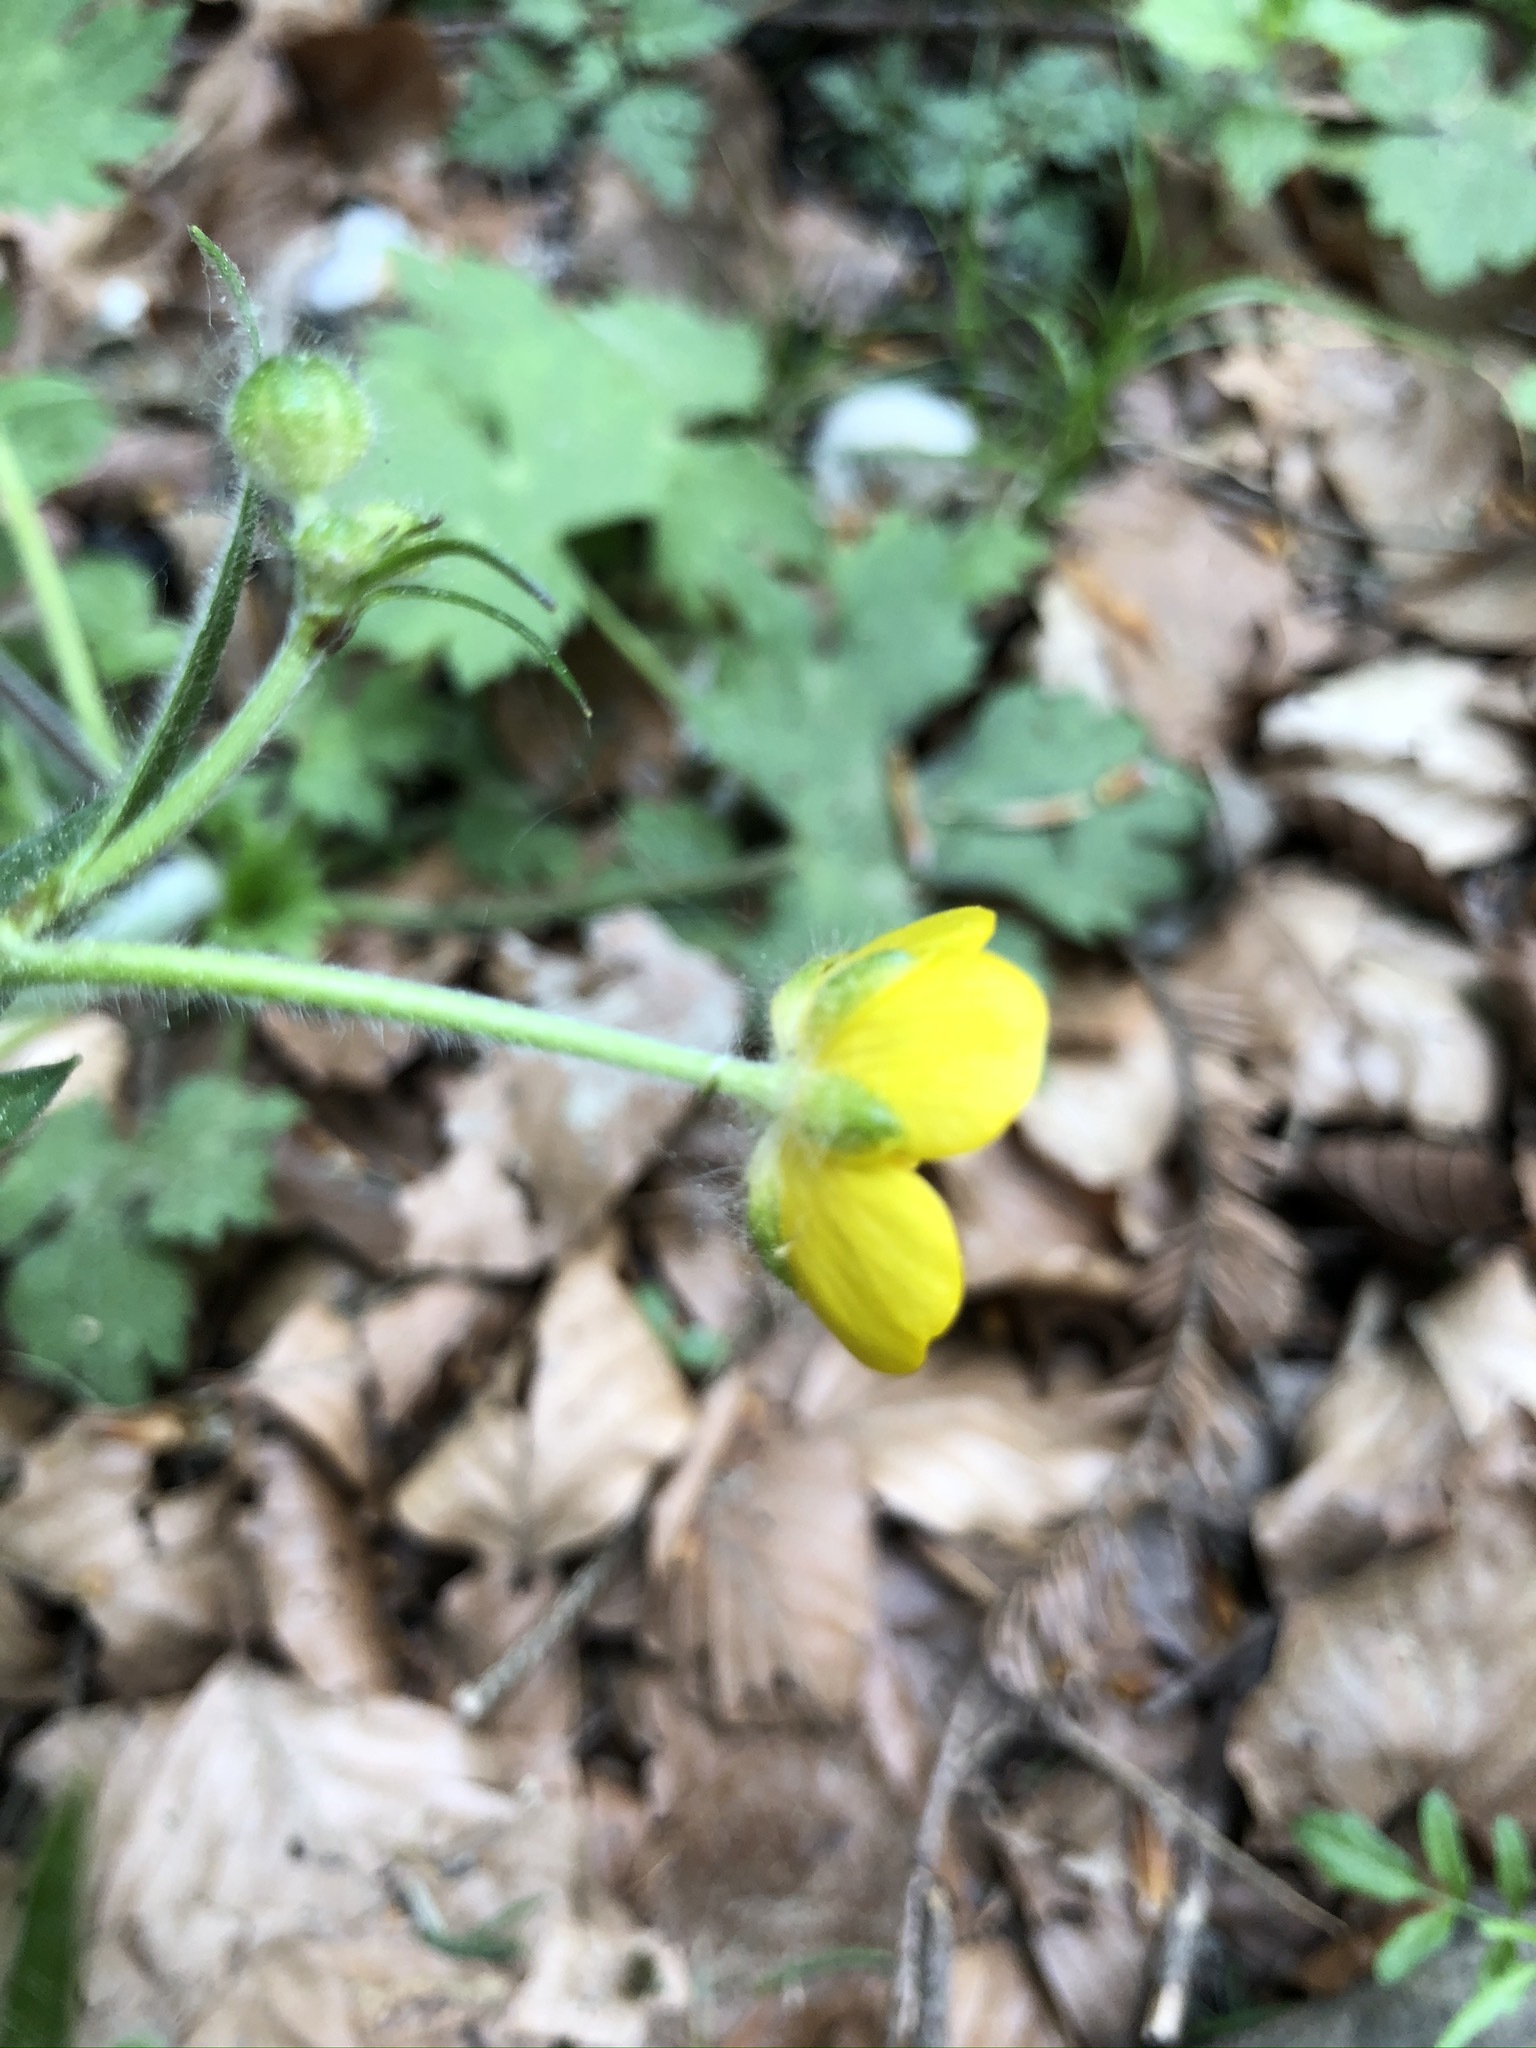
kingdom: Plantae
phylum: Tracheophyta
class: Magnoliopsida
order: Ranunculales
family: Ranunculaceae
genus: Ranunculus
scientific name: Ranunculus lanuginosus
